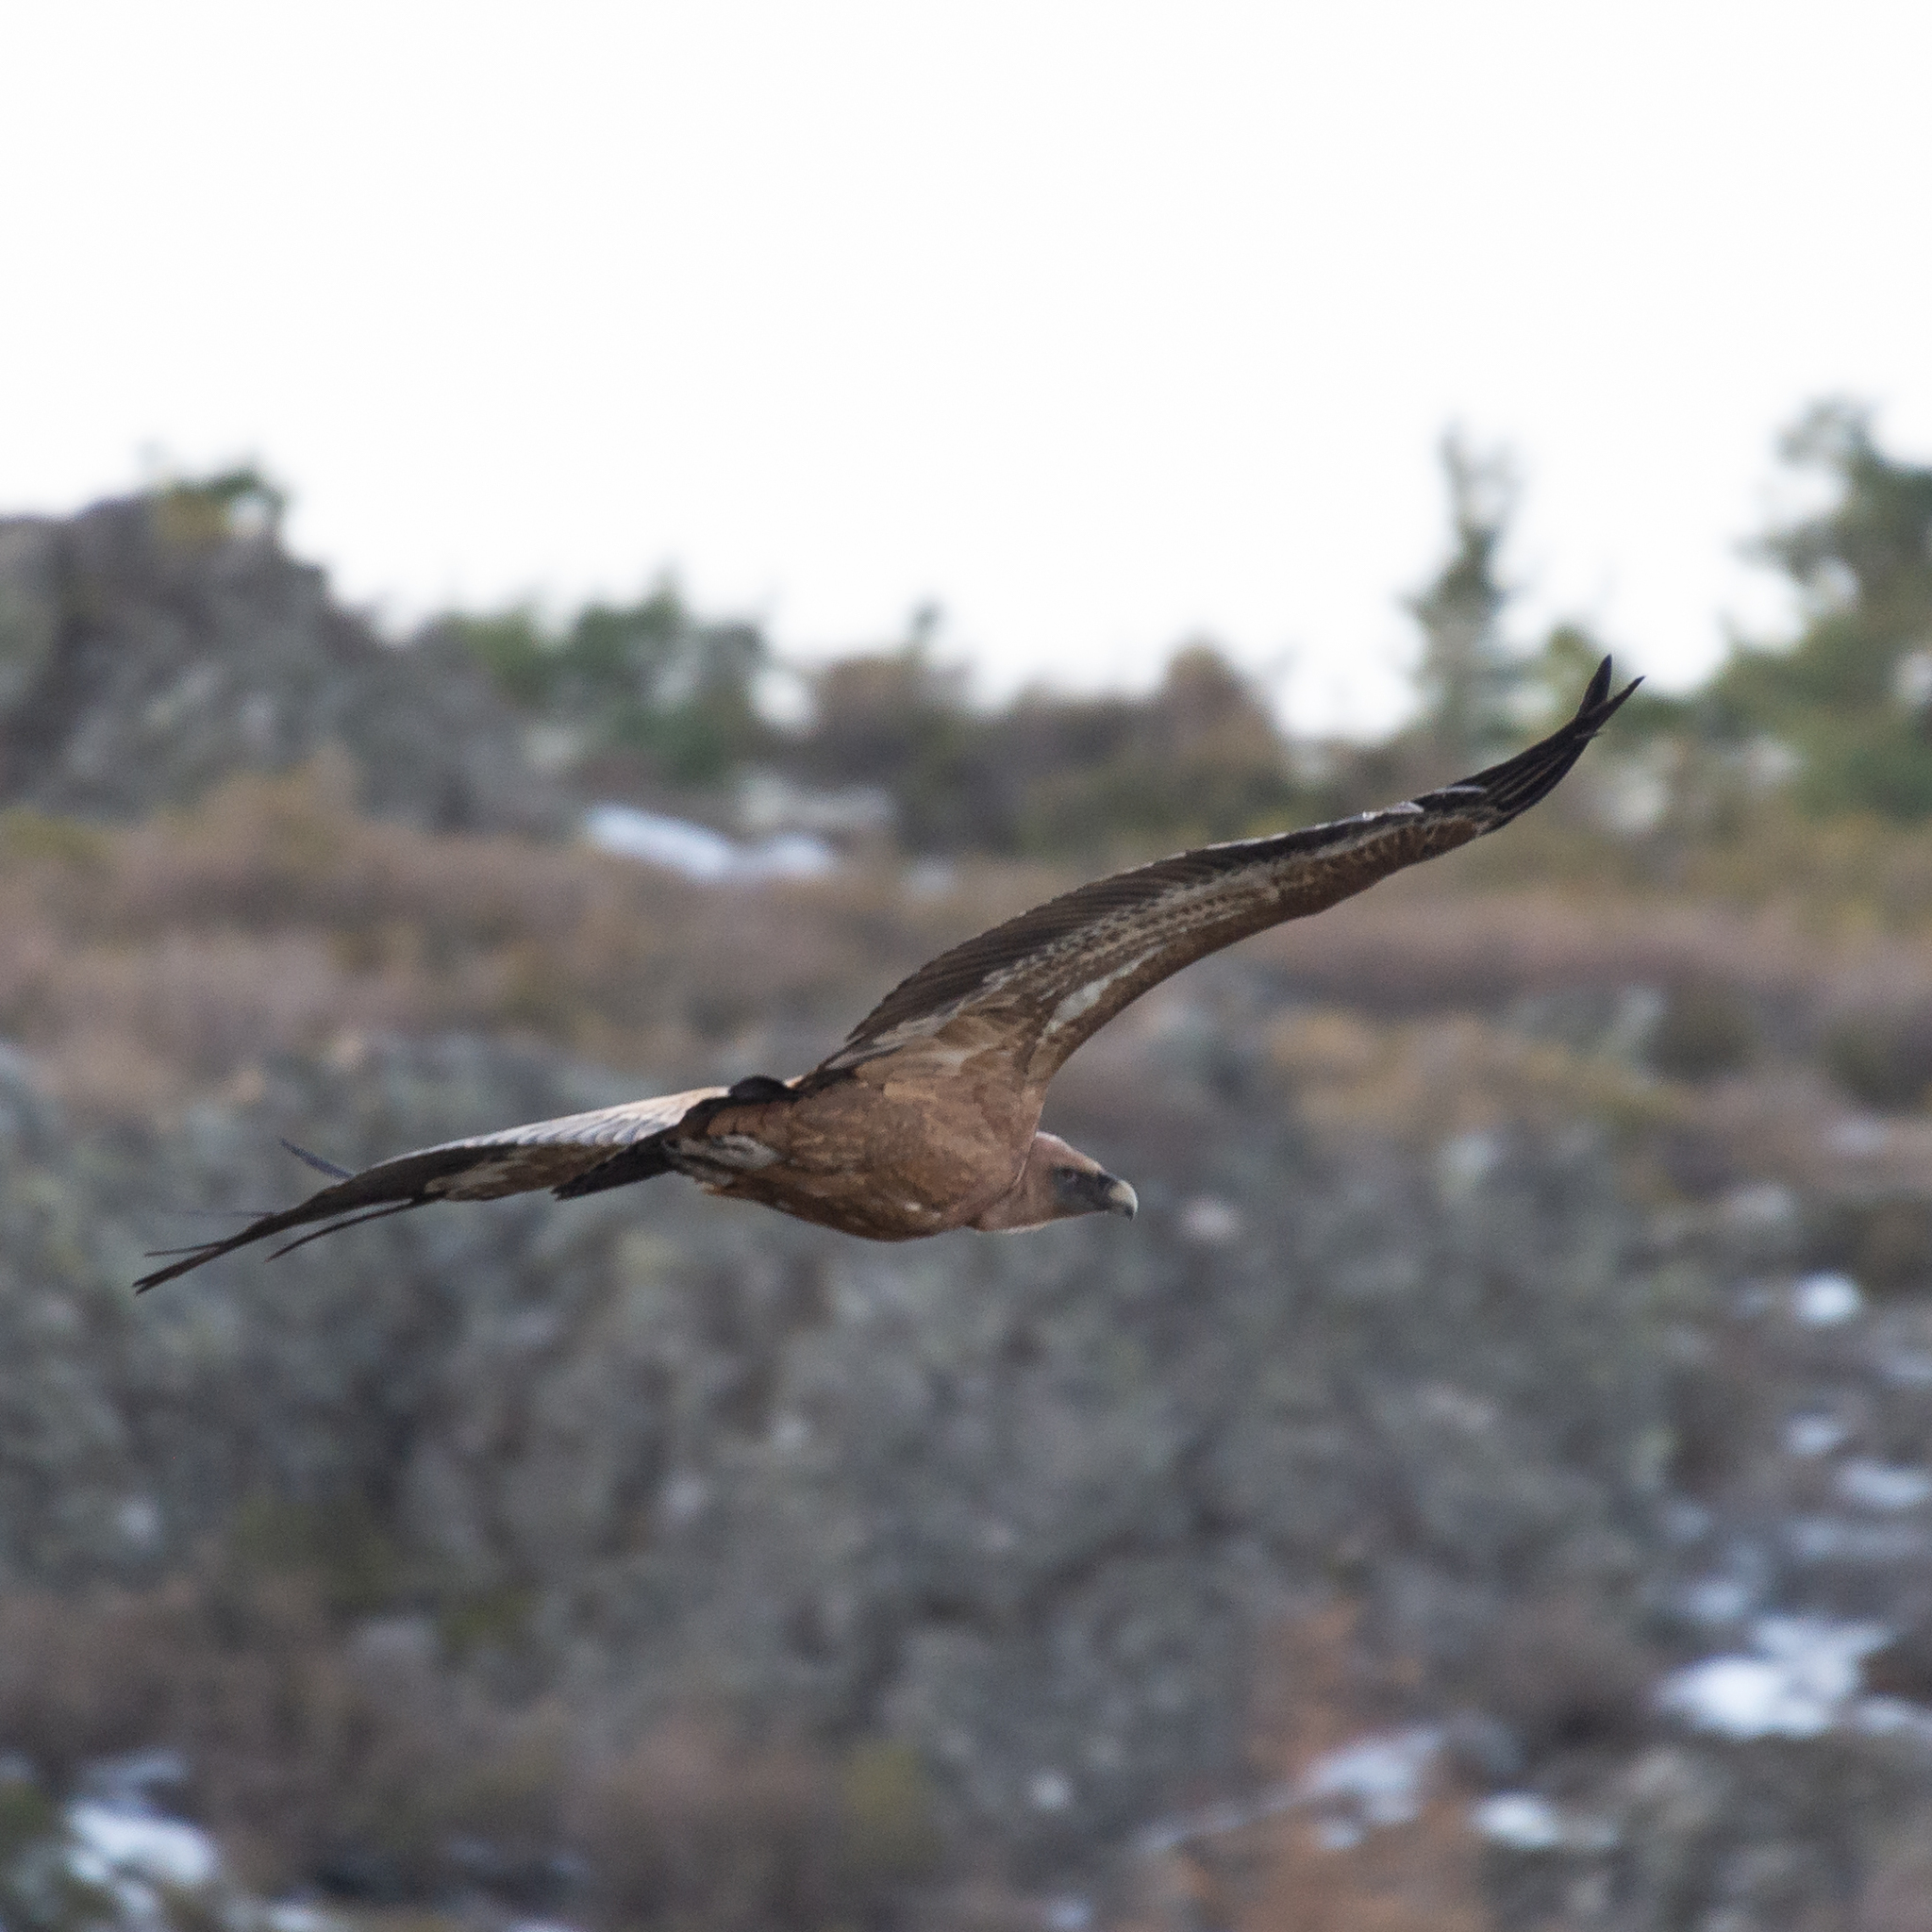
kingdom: Animalia
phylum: Chordata
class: Aves
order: Accipitriformes
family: Accipitridae
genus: Gyps
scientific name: Gyps fulvus
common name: Griffon vulture
